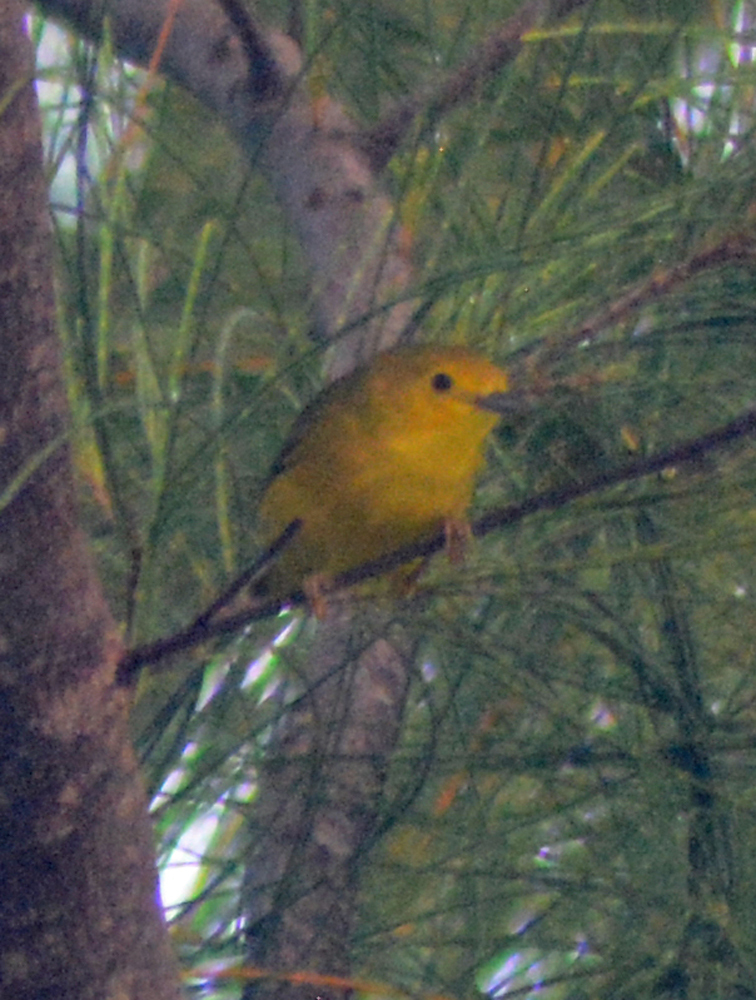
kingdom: Animalia
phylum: Chordata
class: Aves
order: Passeriformes
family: Parulidae
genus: Setophaga
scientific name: Setophaga petechia
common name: Yellow warbler
